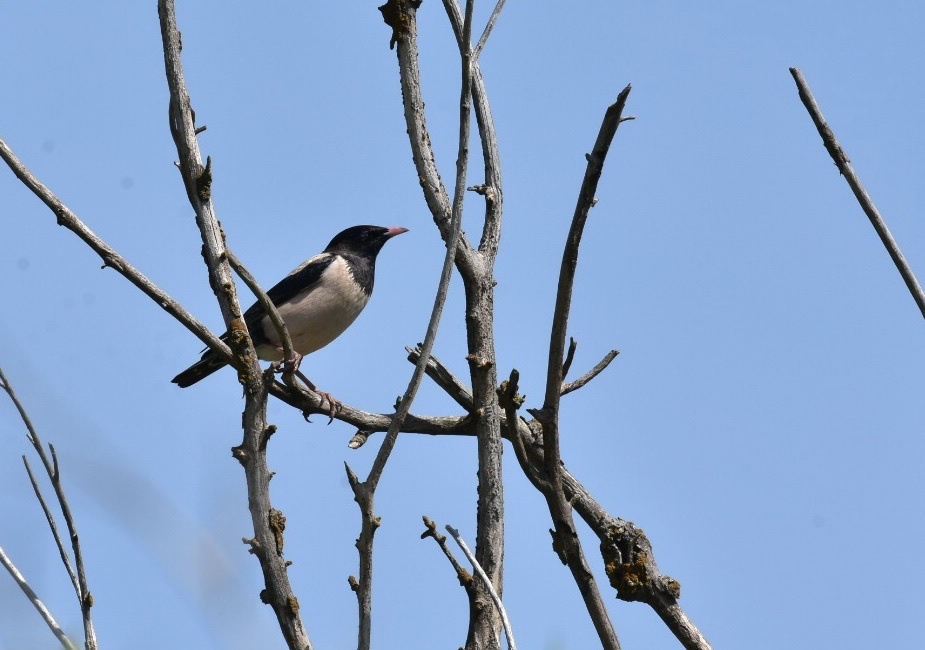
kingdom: Animalia
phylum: Chordata
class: Aves
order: Passeriformes
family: Sturnidae
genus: Pastor
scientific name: Pastor roseus
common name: Rosy starling
